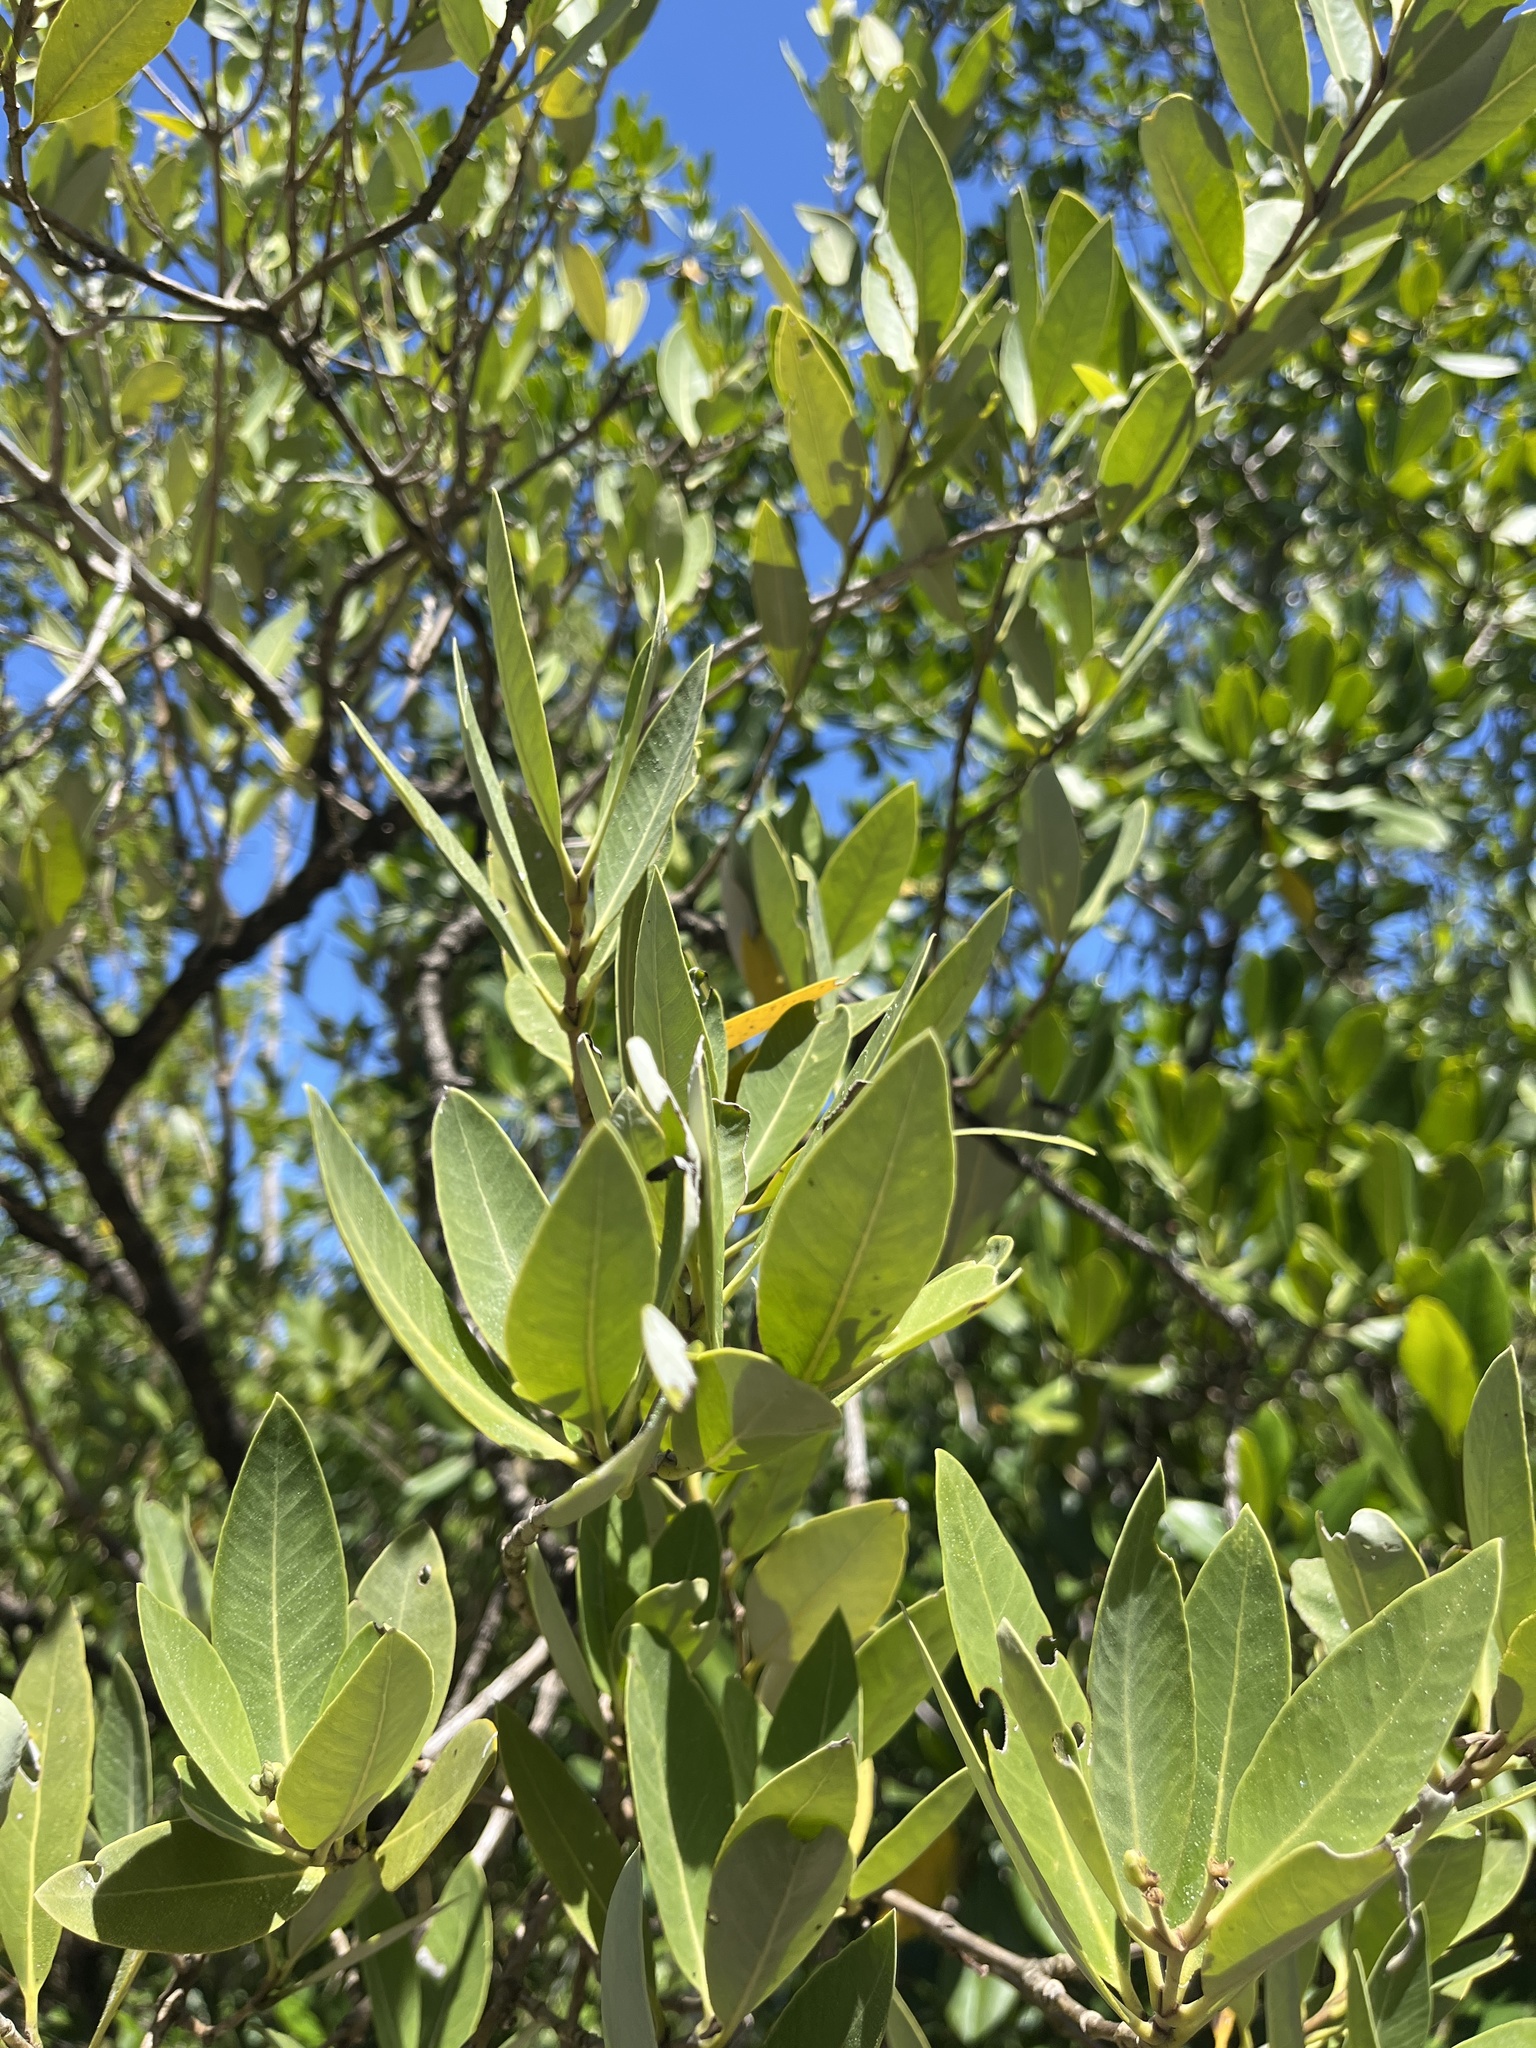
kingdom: Plantae
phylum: Tracheophyta
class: Magnoliopsida
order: Lamiales
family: Acanthaceae
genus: Avicennia
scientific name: Avicennia germinans
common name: Black mangrove
